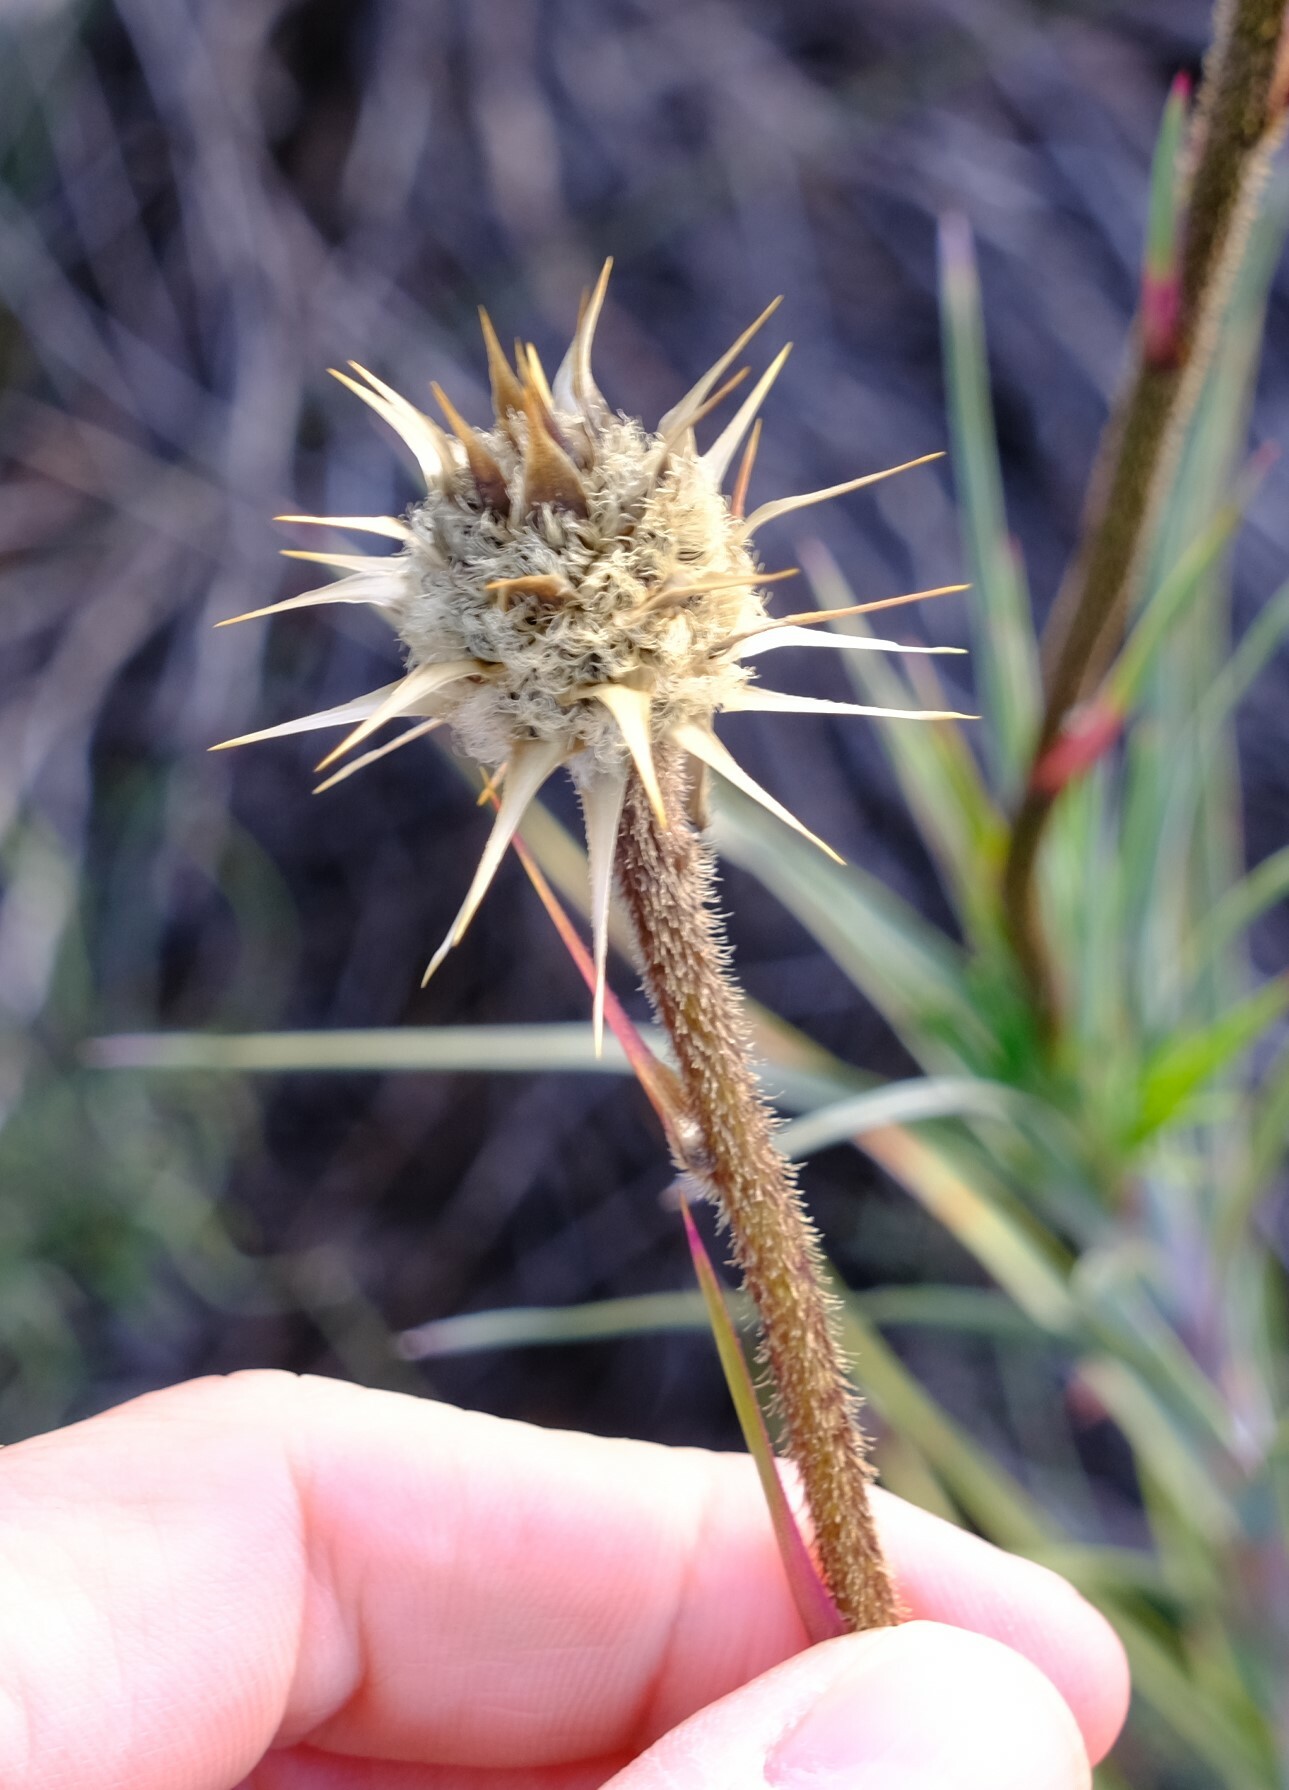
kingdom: Plantae
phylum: Tracheophyta
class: Liliopsida
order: Arecales
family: Dasypogonaceae
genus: Dasypogon
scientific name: Dasypogon obliquifolius
